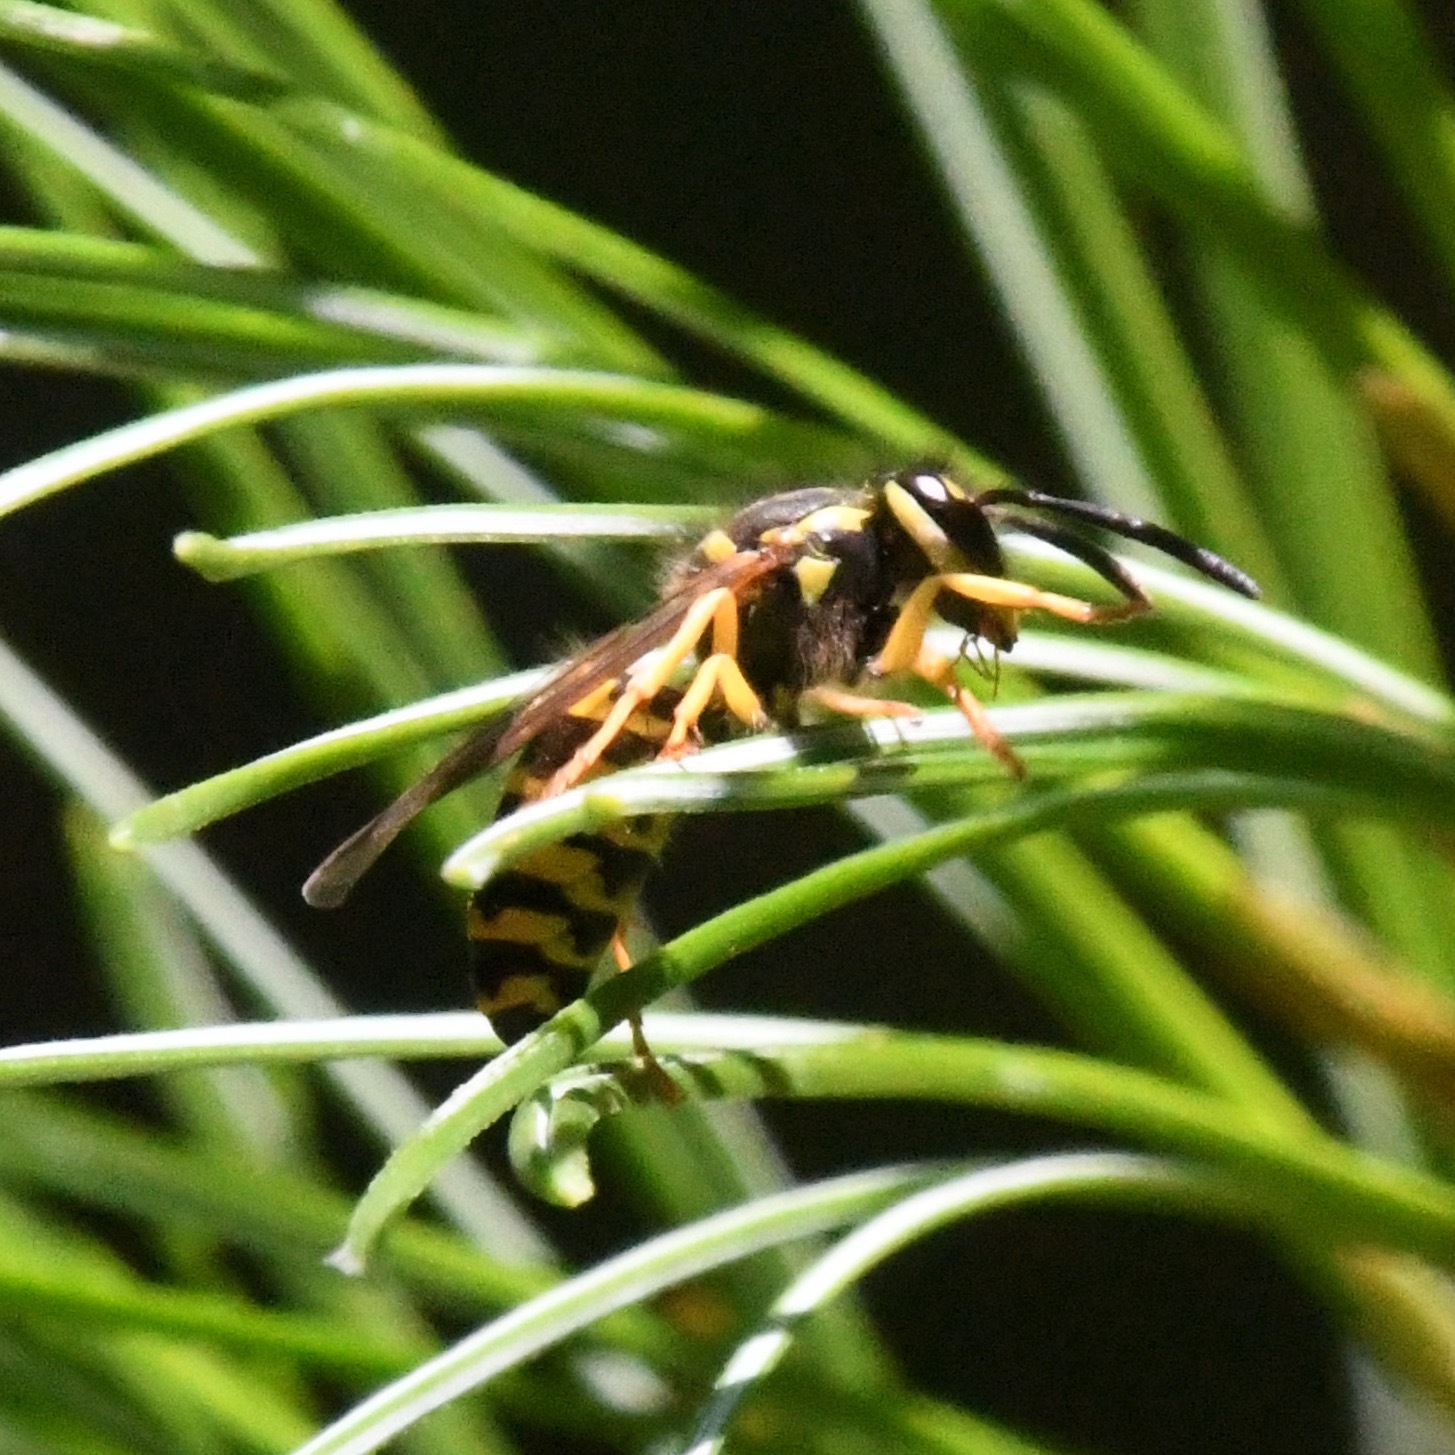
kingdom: Animalia
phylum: Arthropoda
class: Insecta
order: Hymenoptera
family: Vespidae
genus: Vespula
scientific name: Vespula maculifrons
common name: Eastern yellowjacket
